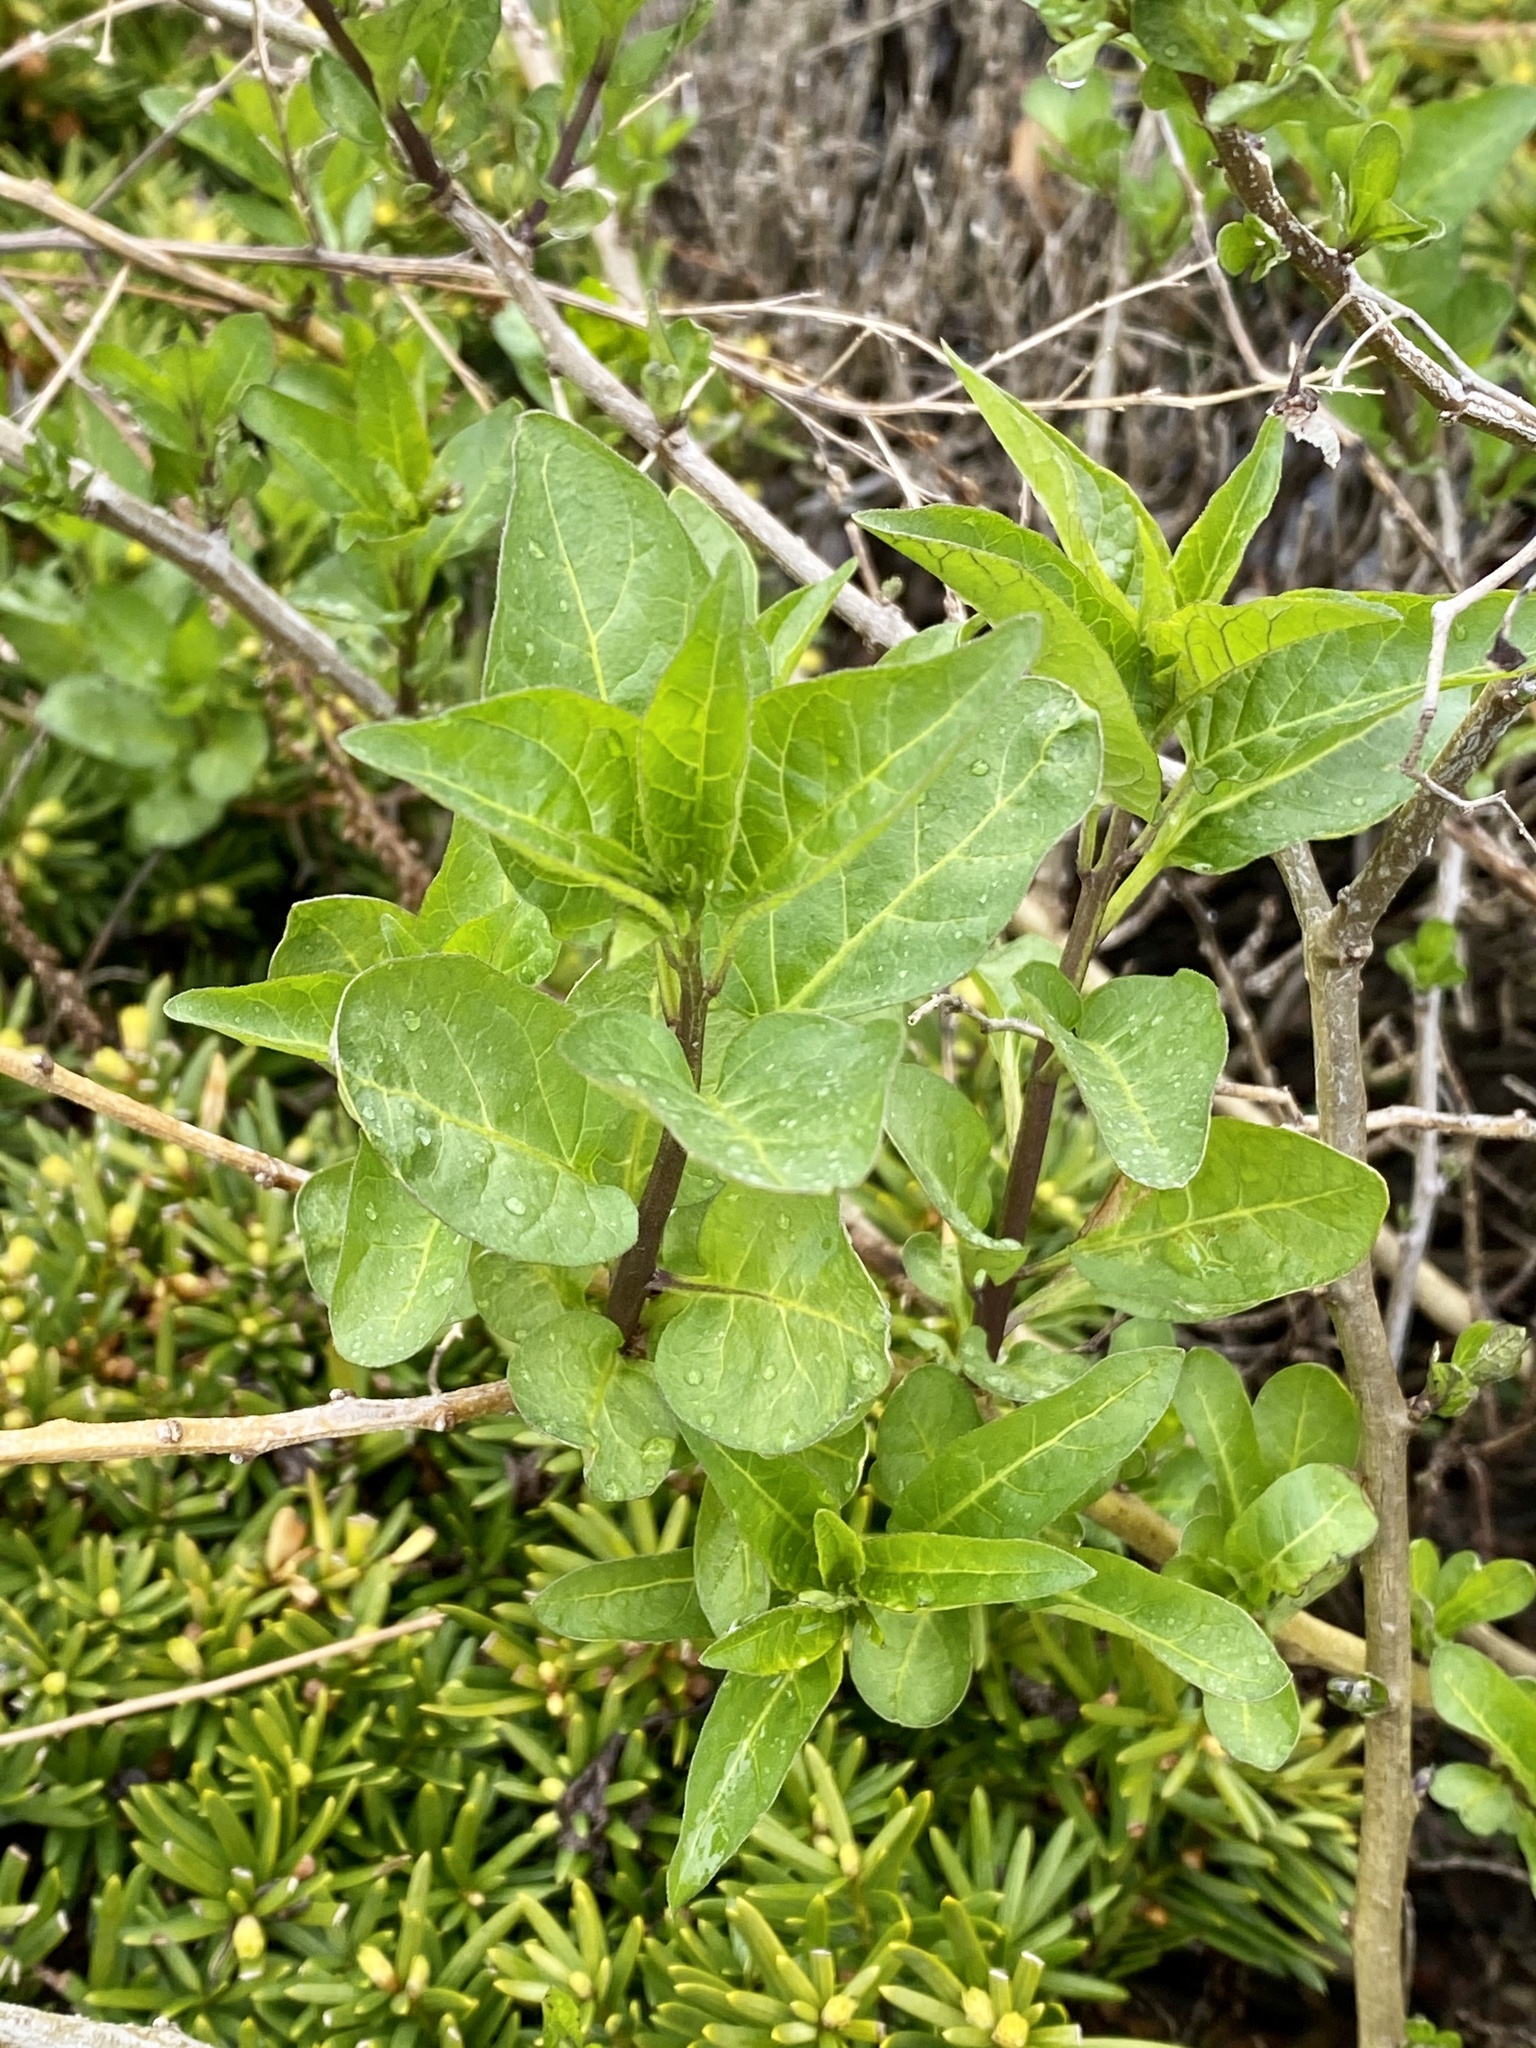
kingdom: Plantae
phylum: Tracheophyta
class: Magnoliopsida
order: Solanales
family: Solanaceae
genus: Solanum
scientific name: Solanum dulcamara
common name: Climbing nightshade
